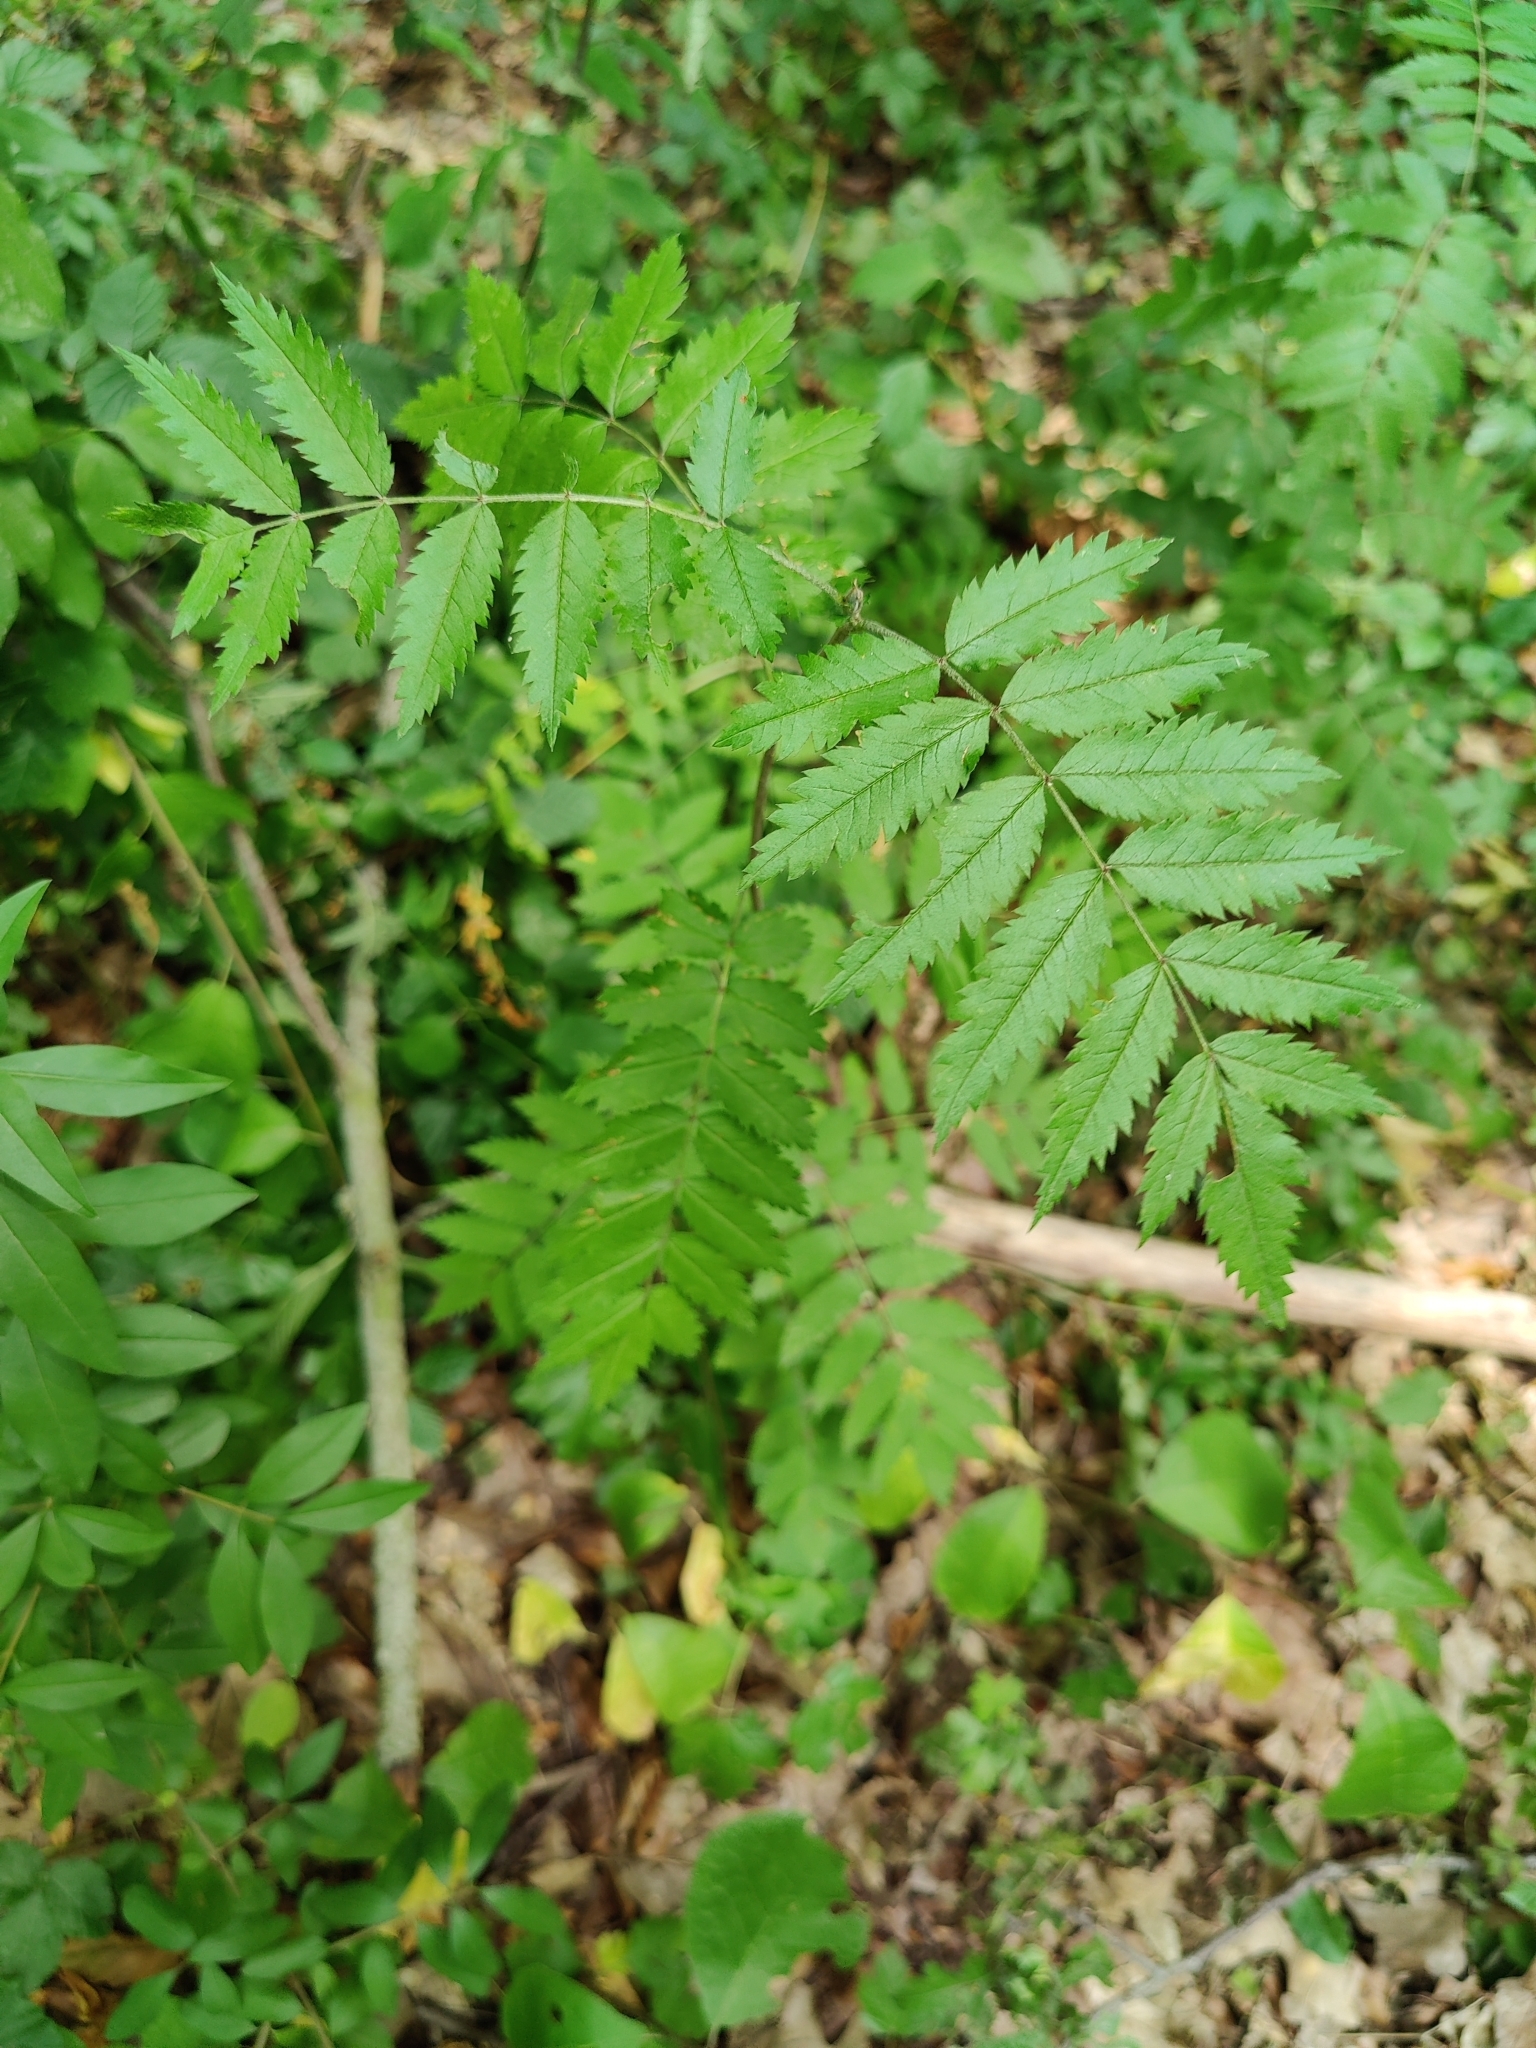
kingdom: Plantae
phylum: Tracheophyta
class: Magnoliopsida
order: Rosales
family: Rosaceae
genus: Sorbus
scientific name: Sorbus aucuparia
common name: Rowan
